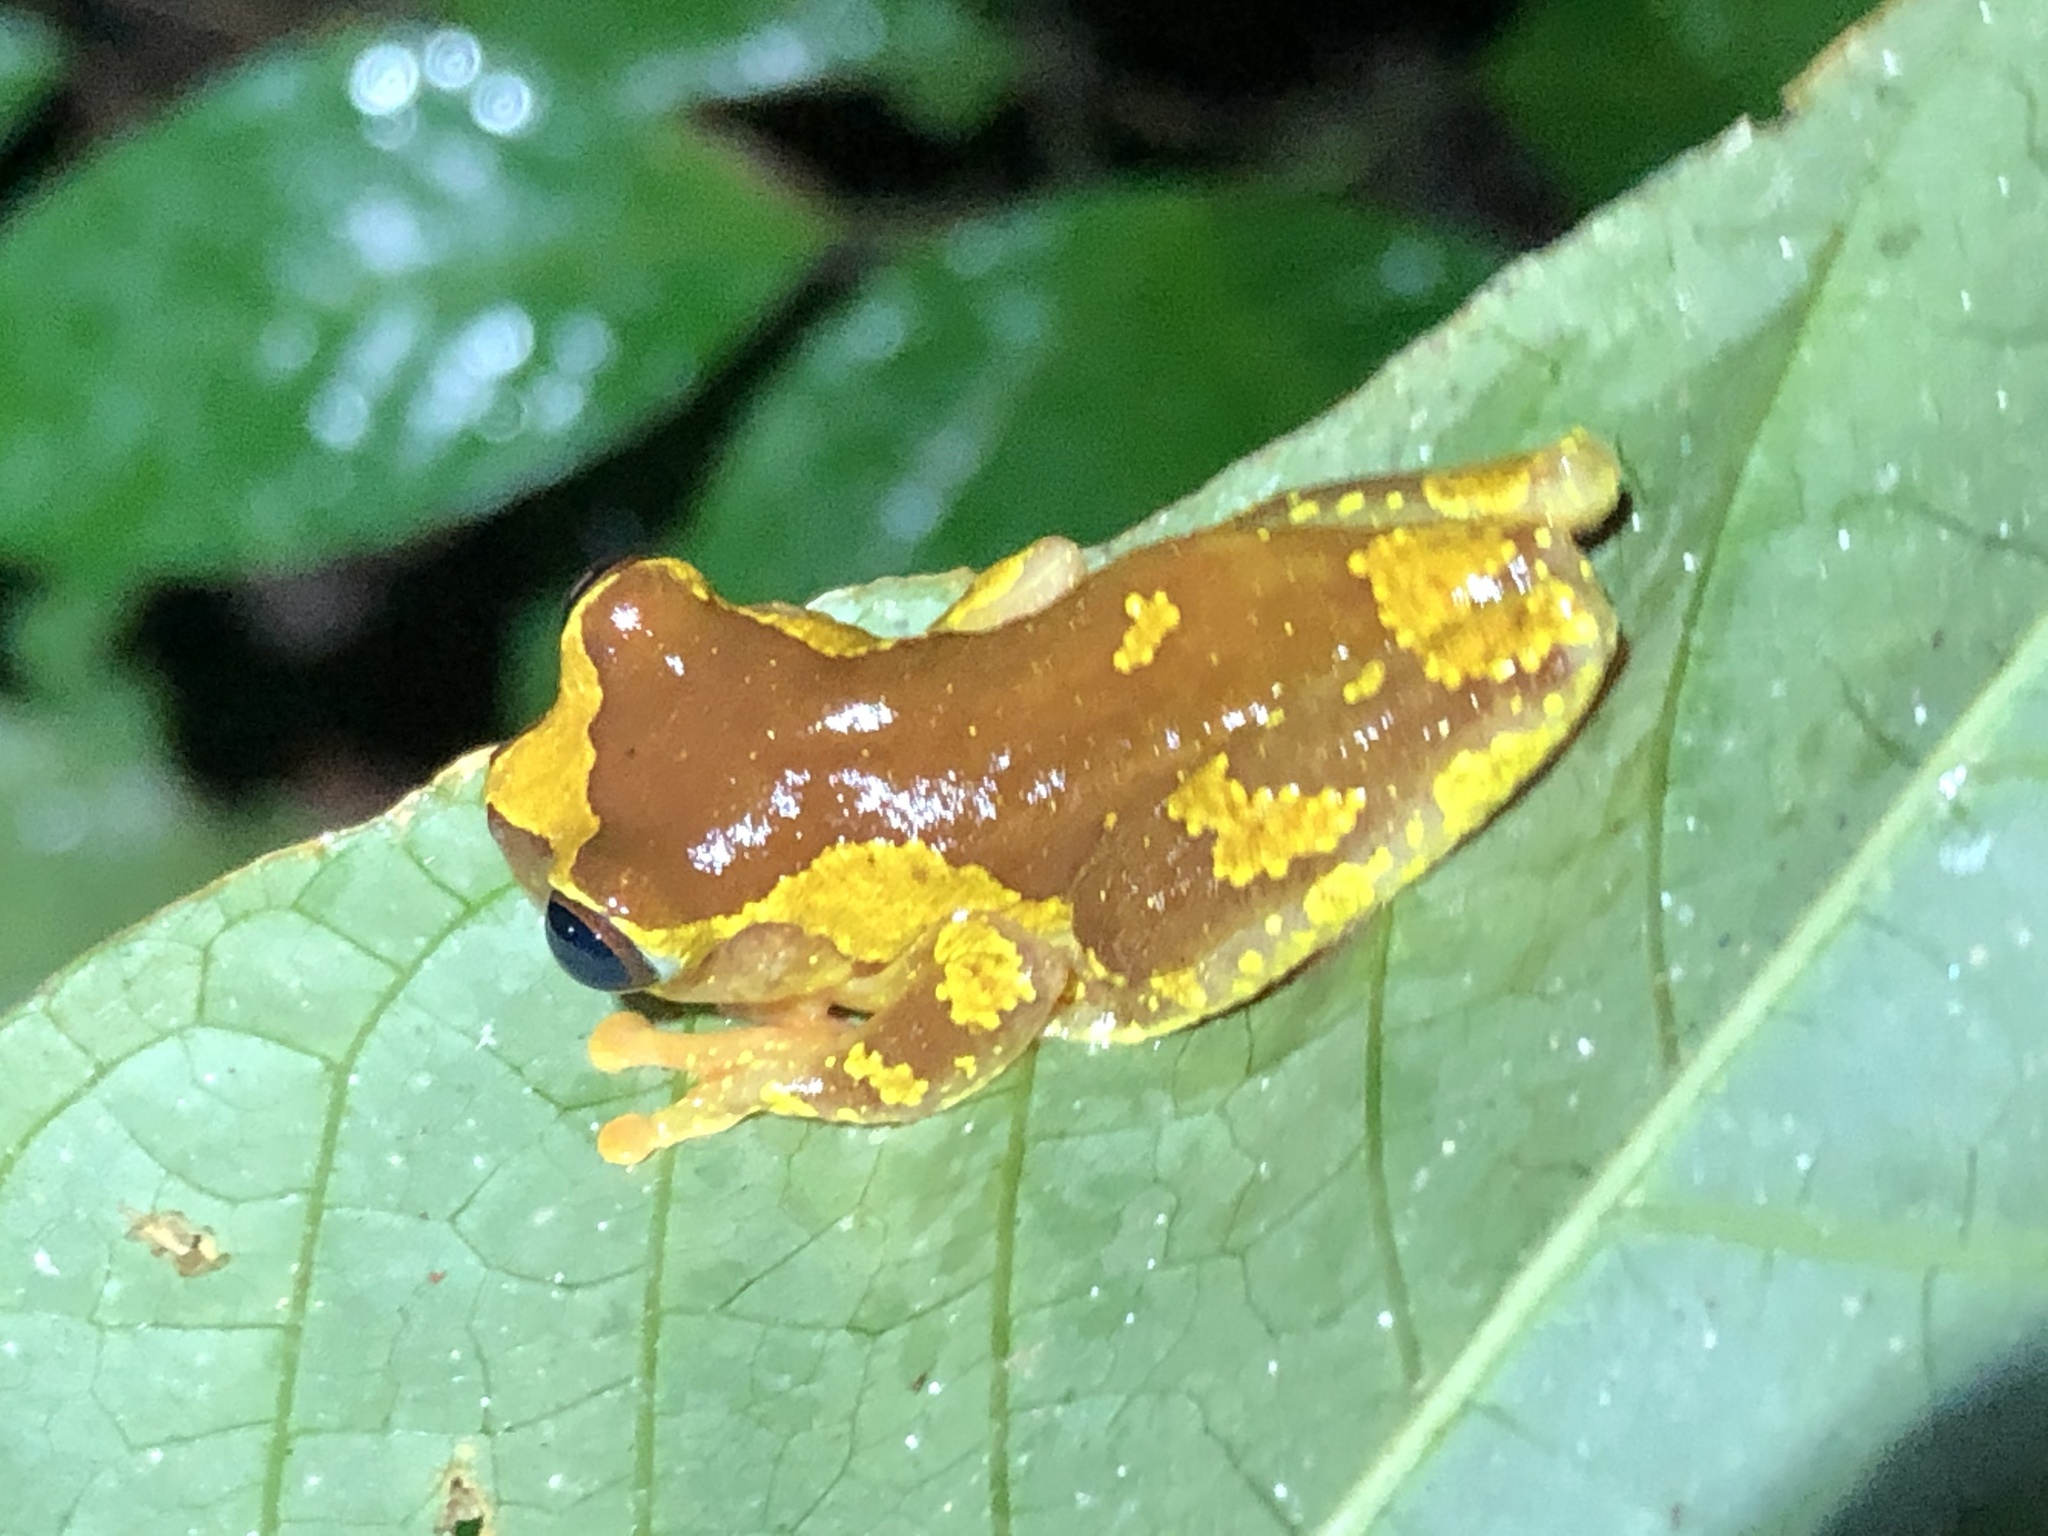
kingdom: Animalia
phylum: Chordata
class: Amphibia
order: Anura
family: Hylidae
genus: Dendropsophus
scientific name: Dendropsophus sarayacuensis
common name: Shreve's sarayacu treefrog
